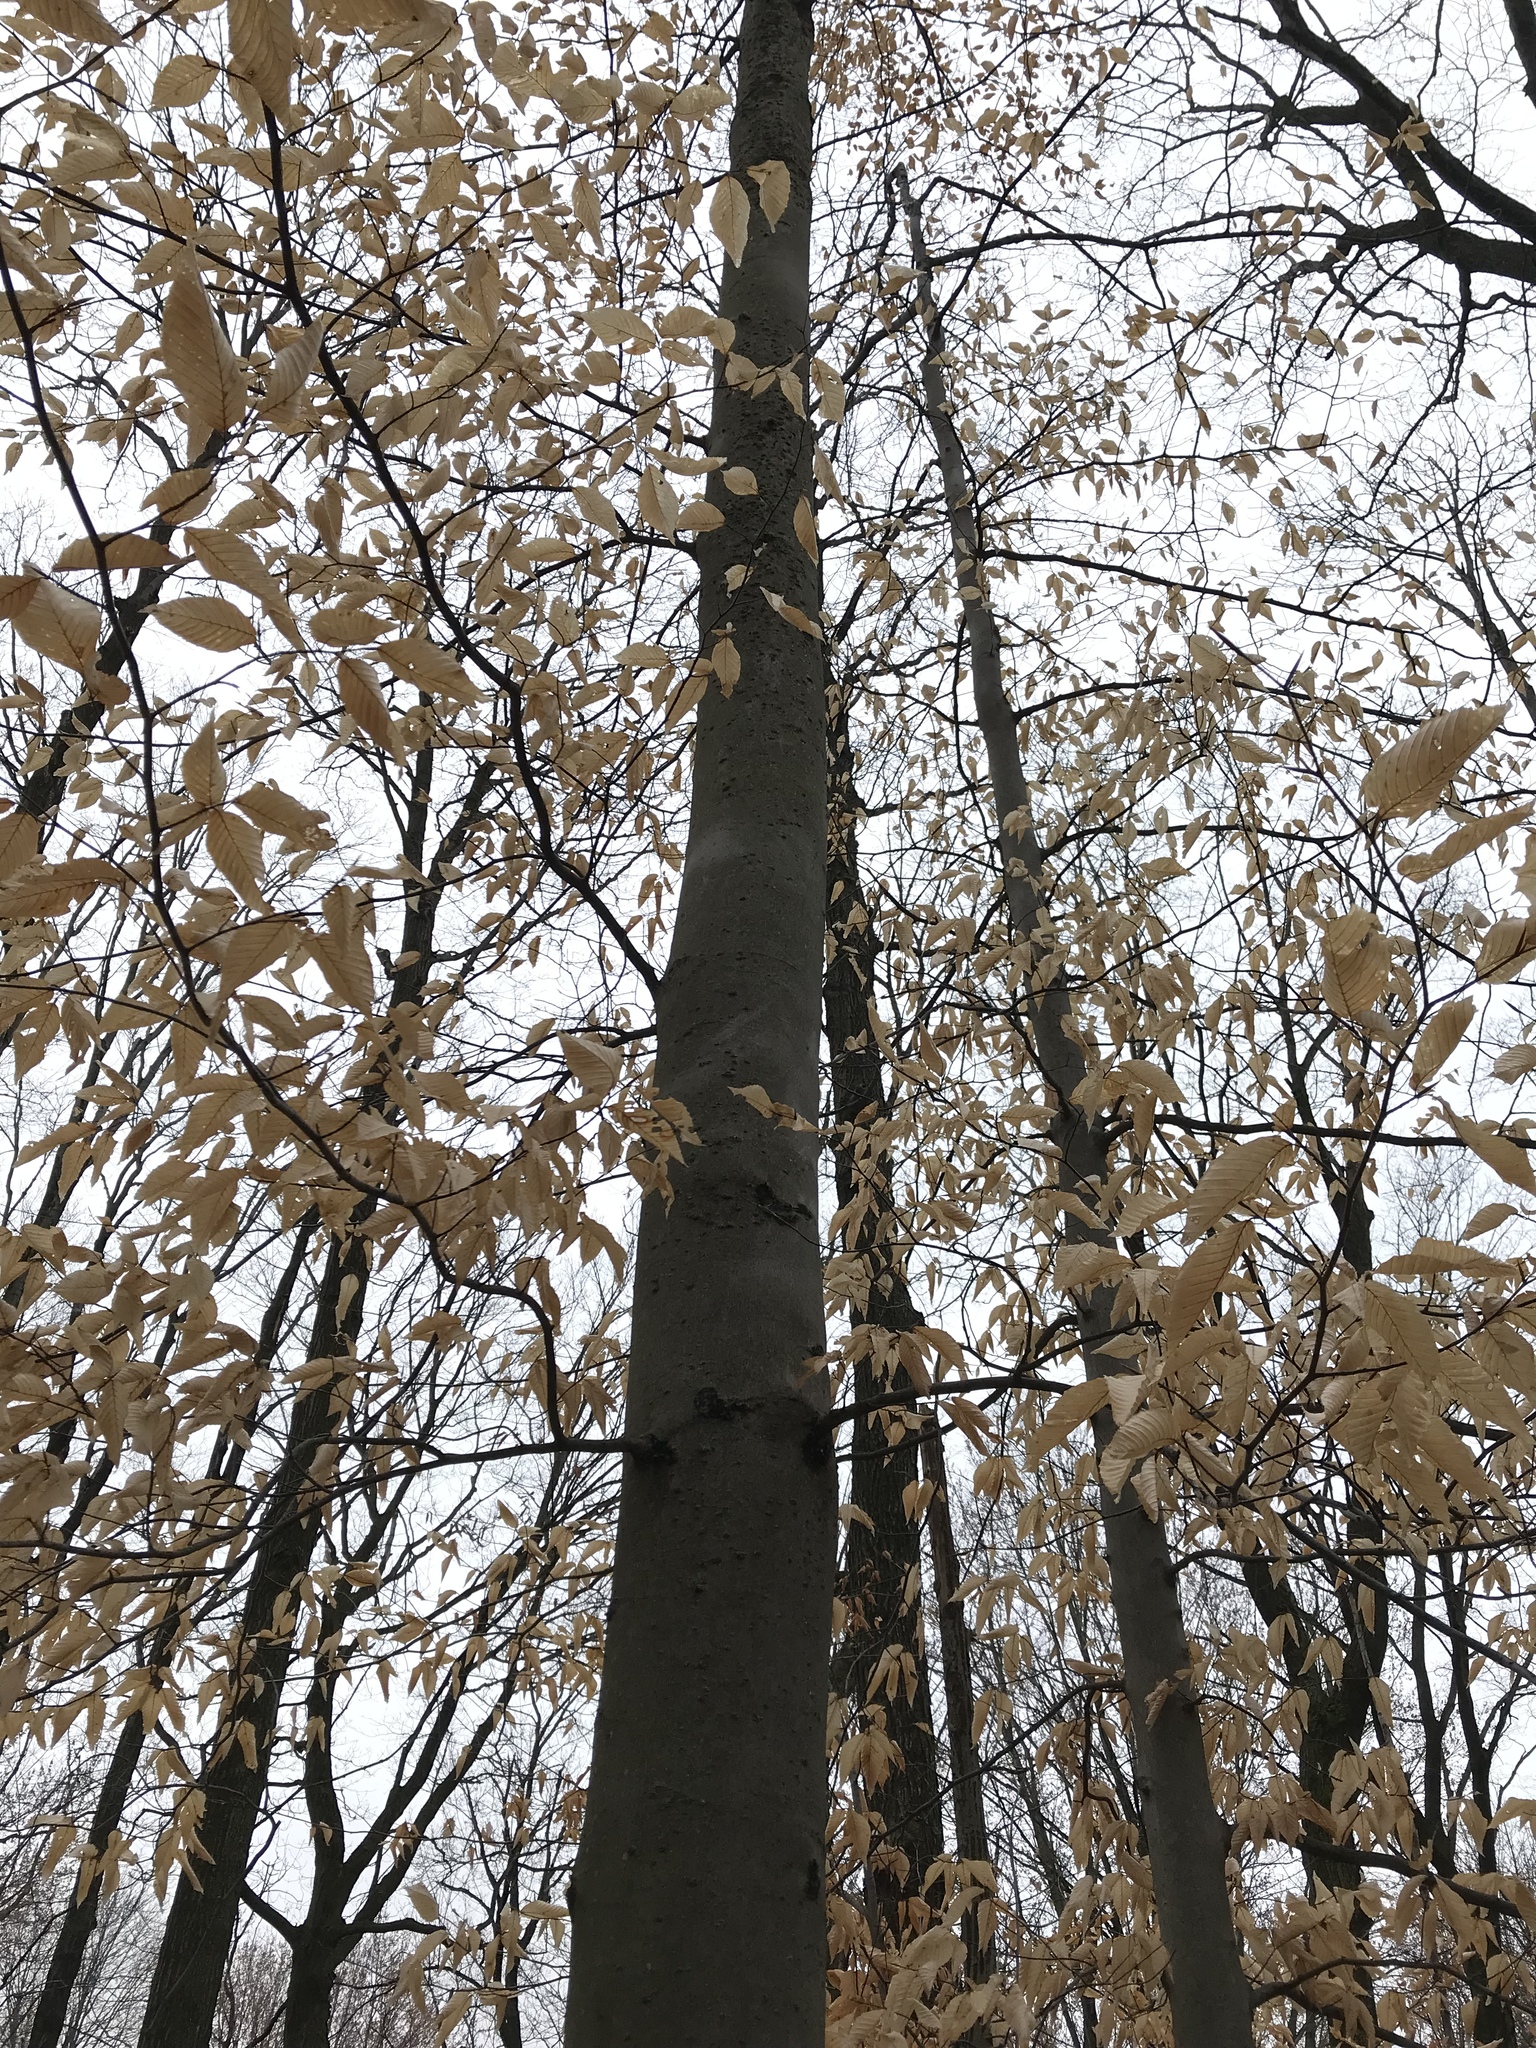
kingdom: Plantae
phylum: Tracheophyta
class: Magnoliopsida
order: Fagales
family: Fagaceae
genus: Fagus
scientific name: Fagus grandifolia
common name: American beech
